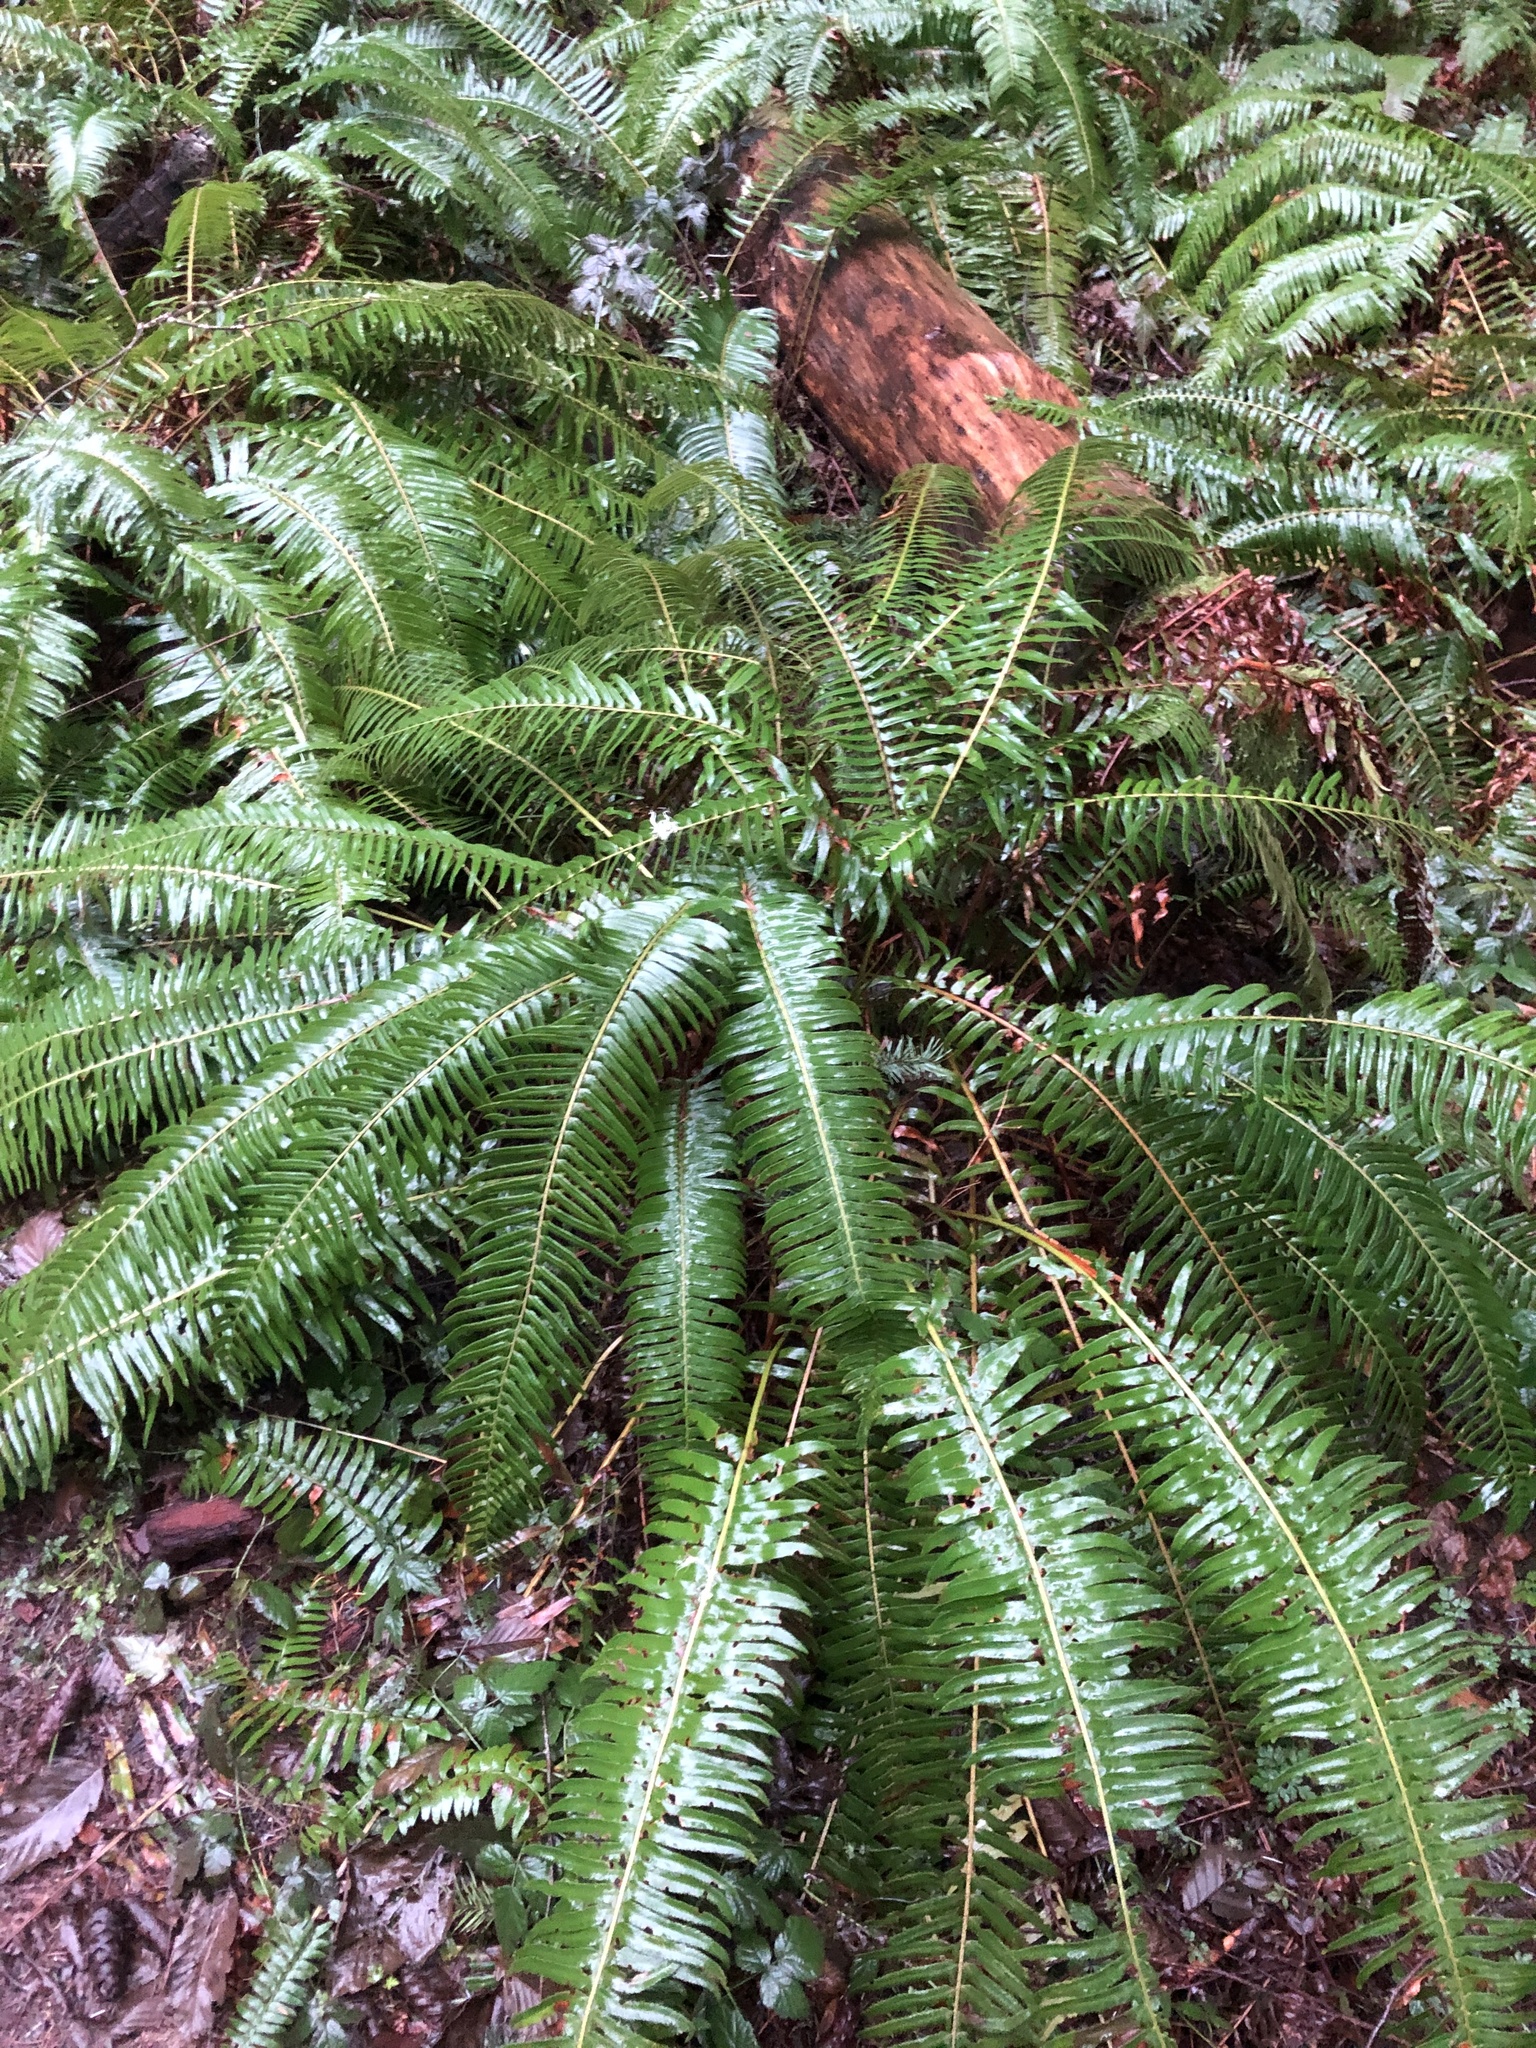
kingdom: Plantae
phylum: Tracheophyta
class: Polypodiopsida
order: Polypodiales
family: Dryopteridaceae
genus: Polystichum
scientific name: Polystichum munitum
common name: Western sword-fern
